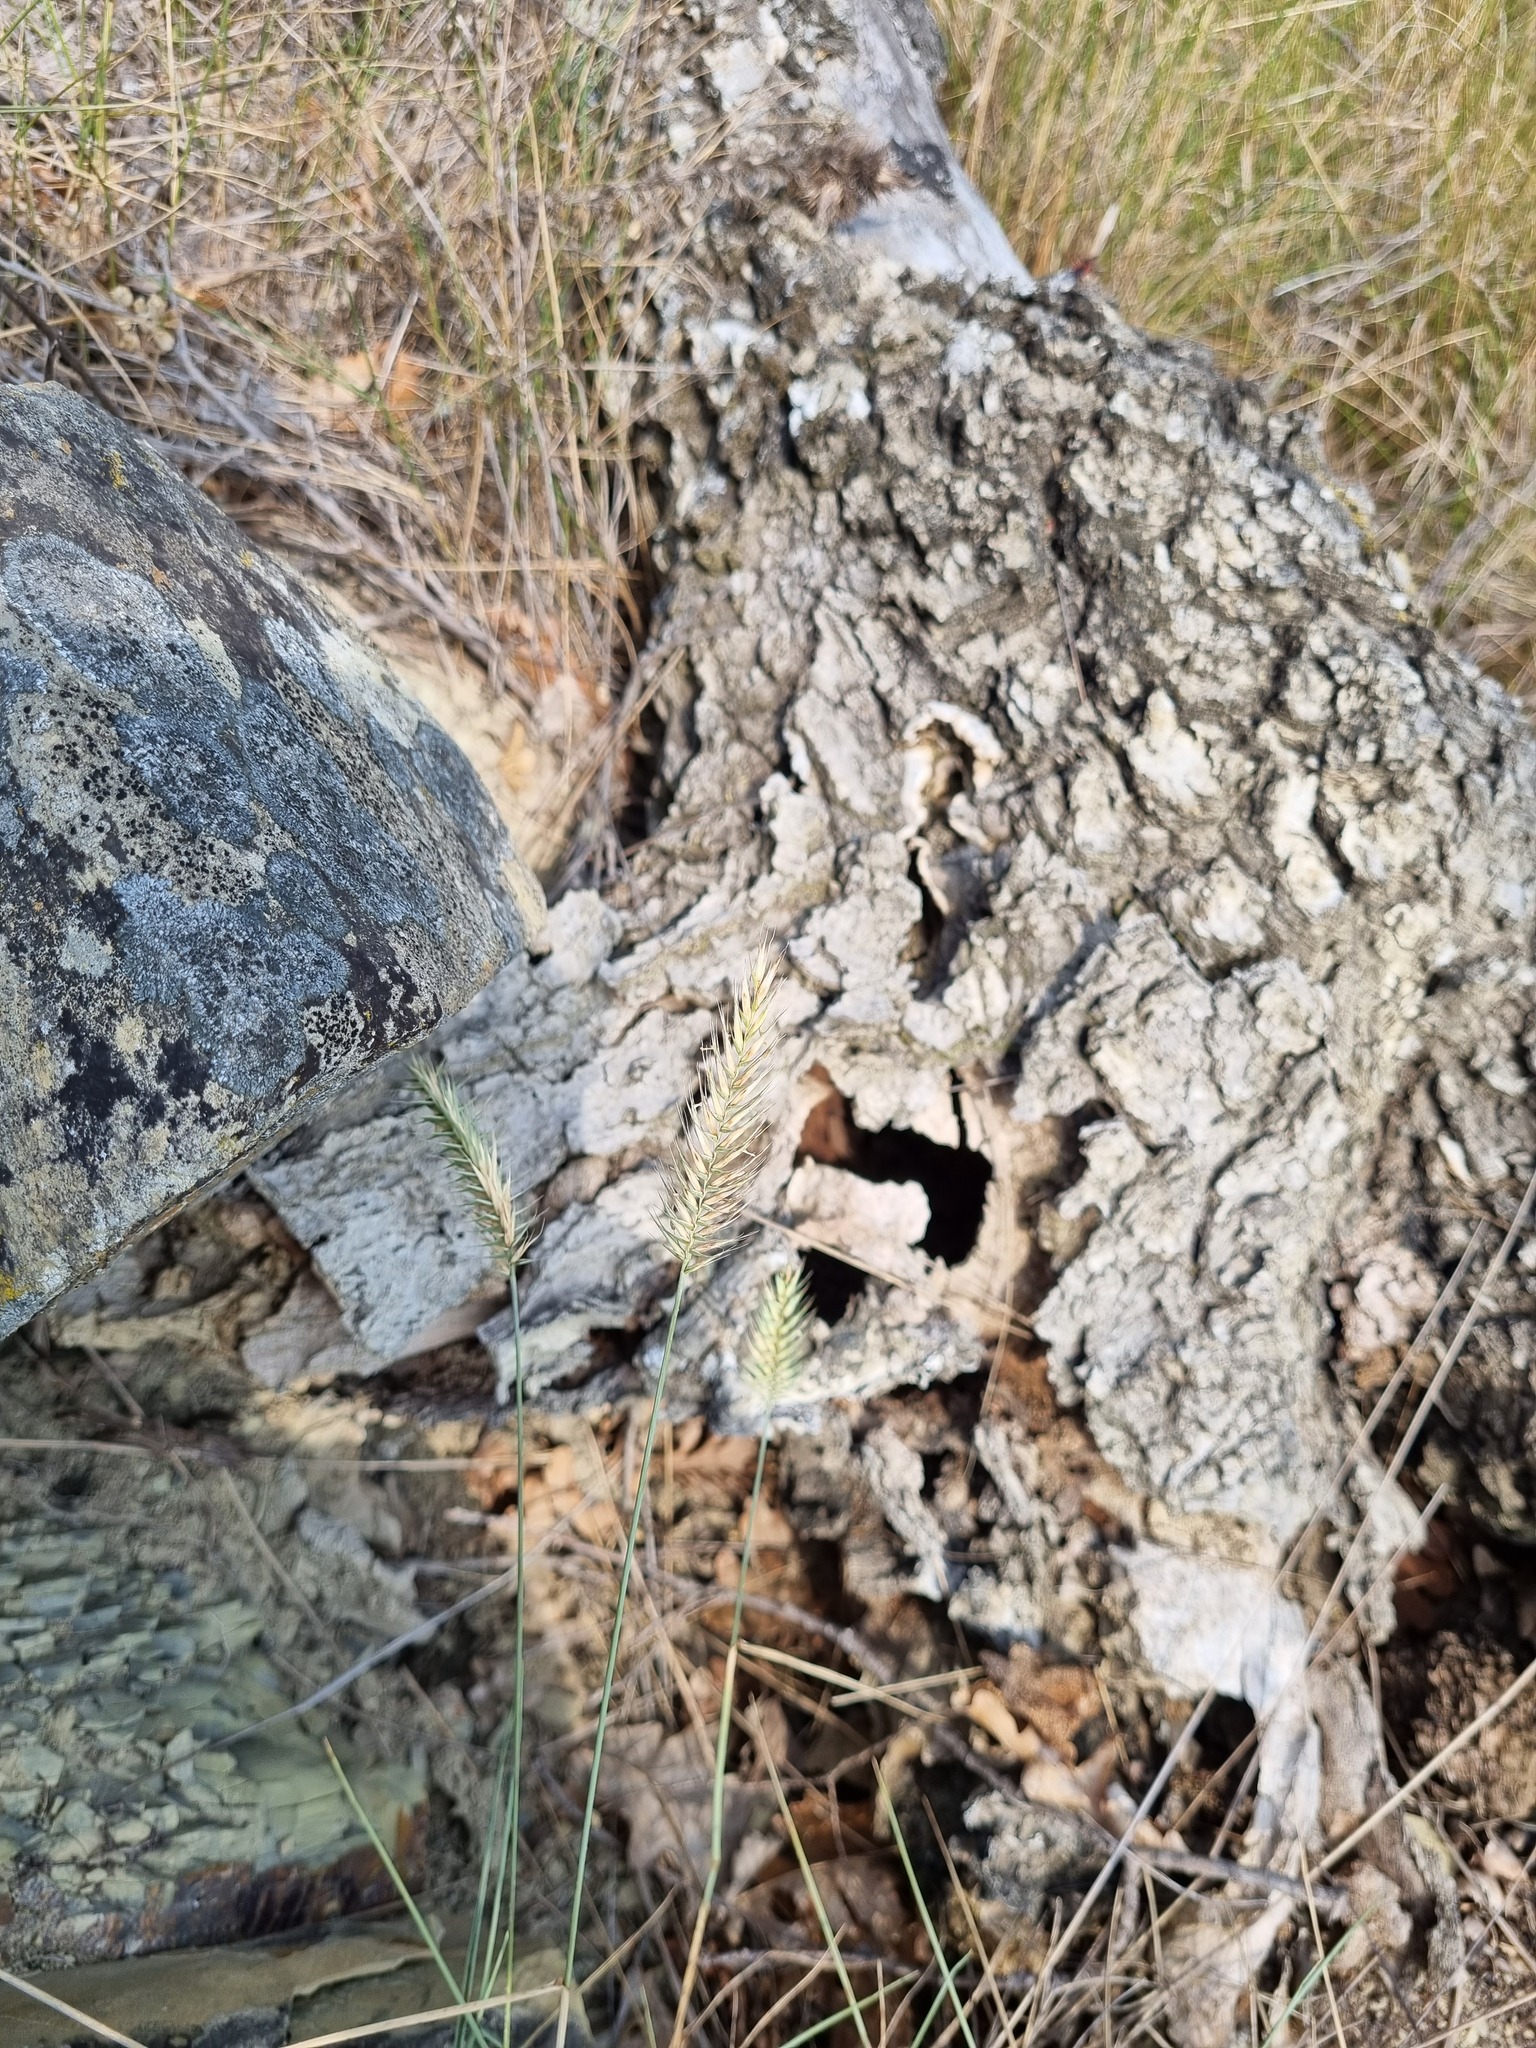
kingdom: Plantae
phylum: Tracheophyta
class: Liliopsida
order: Poales
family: Poaceae
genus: Agropyron
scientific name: Agropyron cristatum
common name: Crested wheatgrass
